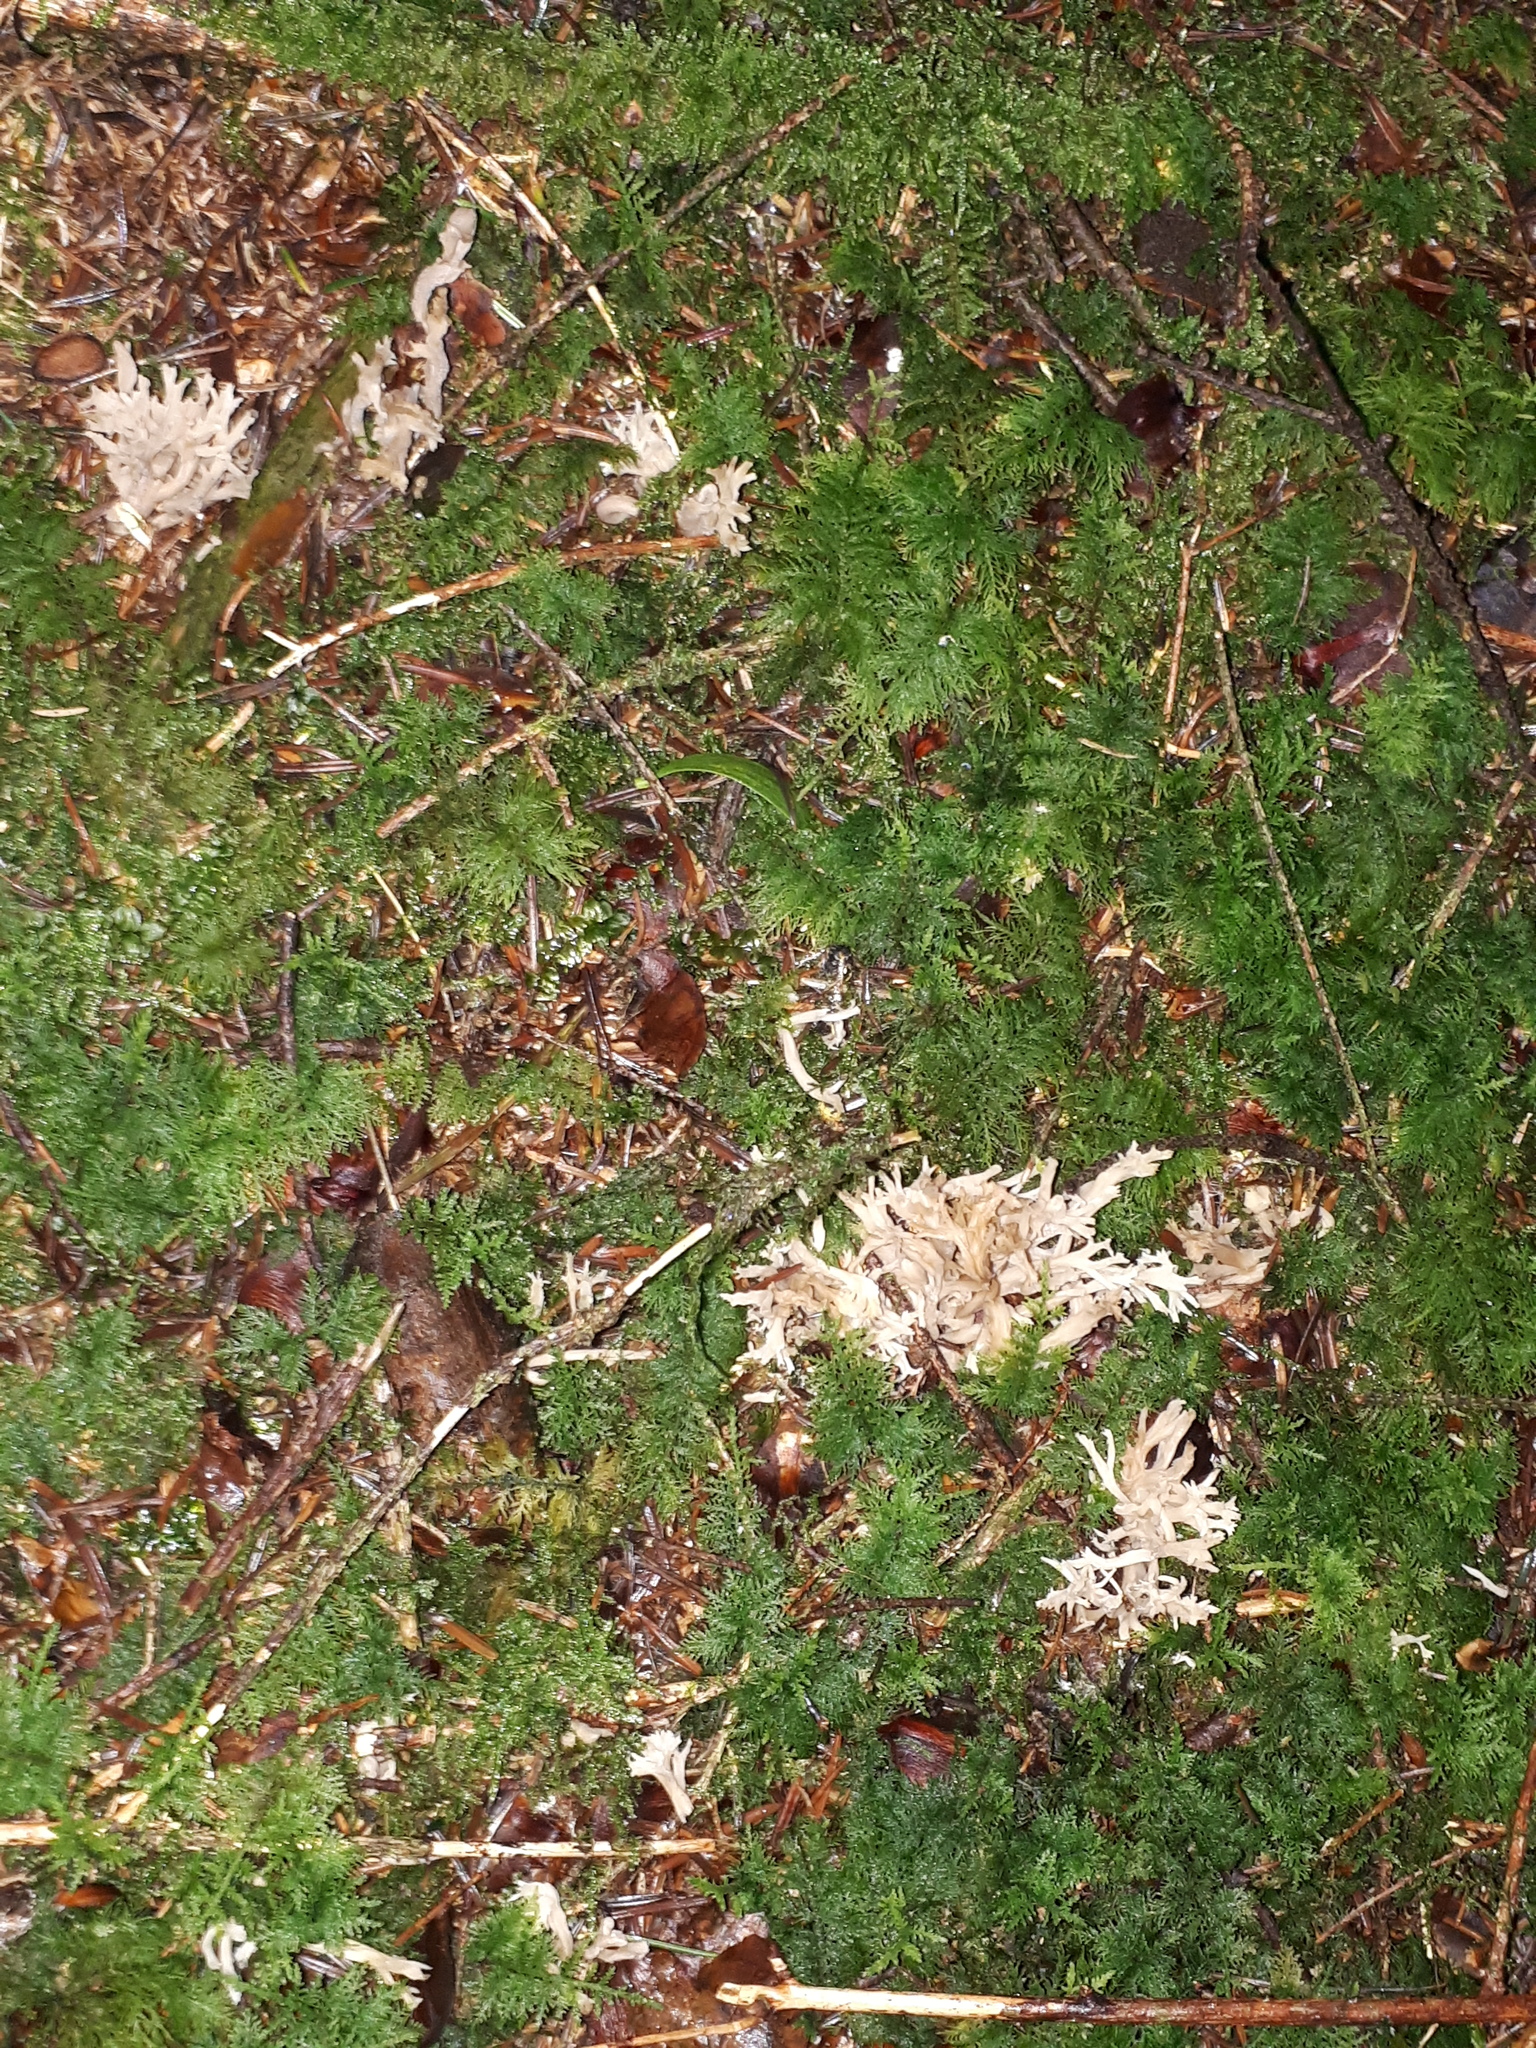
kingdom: Fungi
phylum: Basidiomycota
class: Agaricomycetes
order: Cantharellales
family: Hydnaceae
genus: Clavulina
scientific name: Clavulina coralloides
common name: Crested coral
